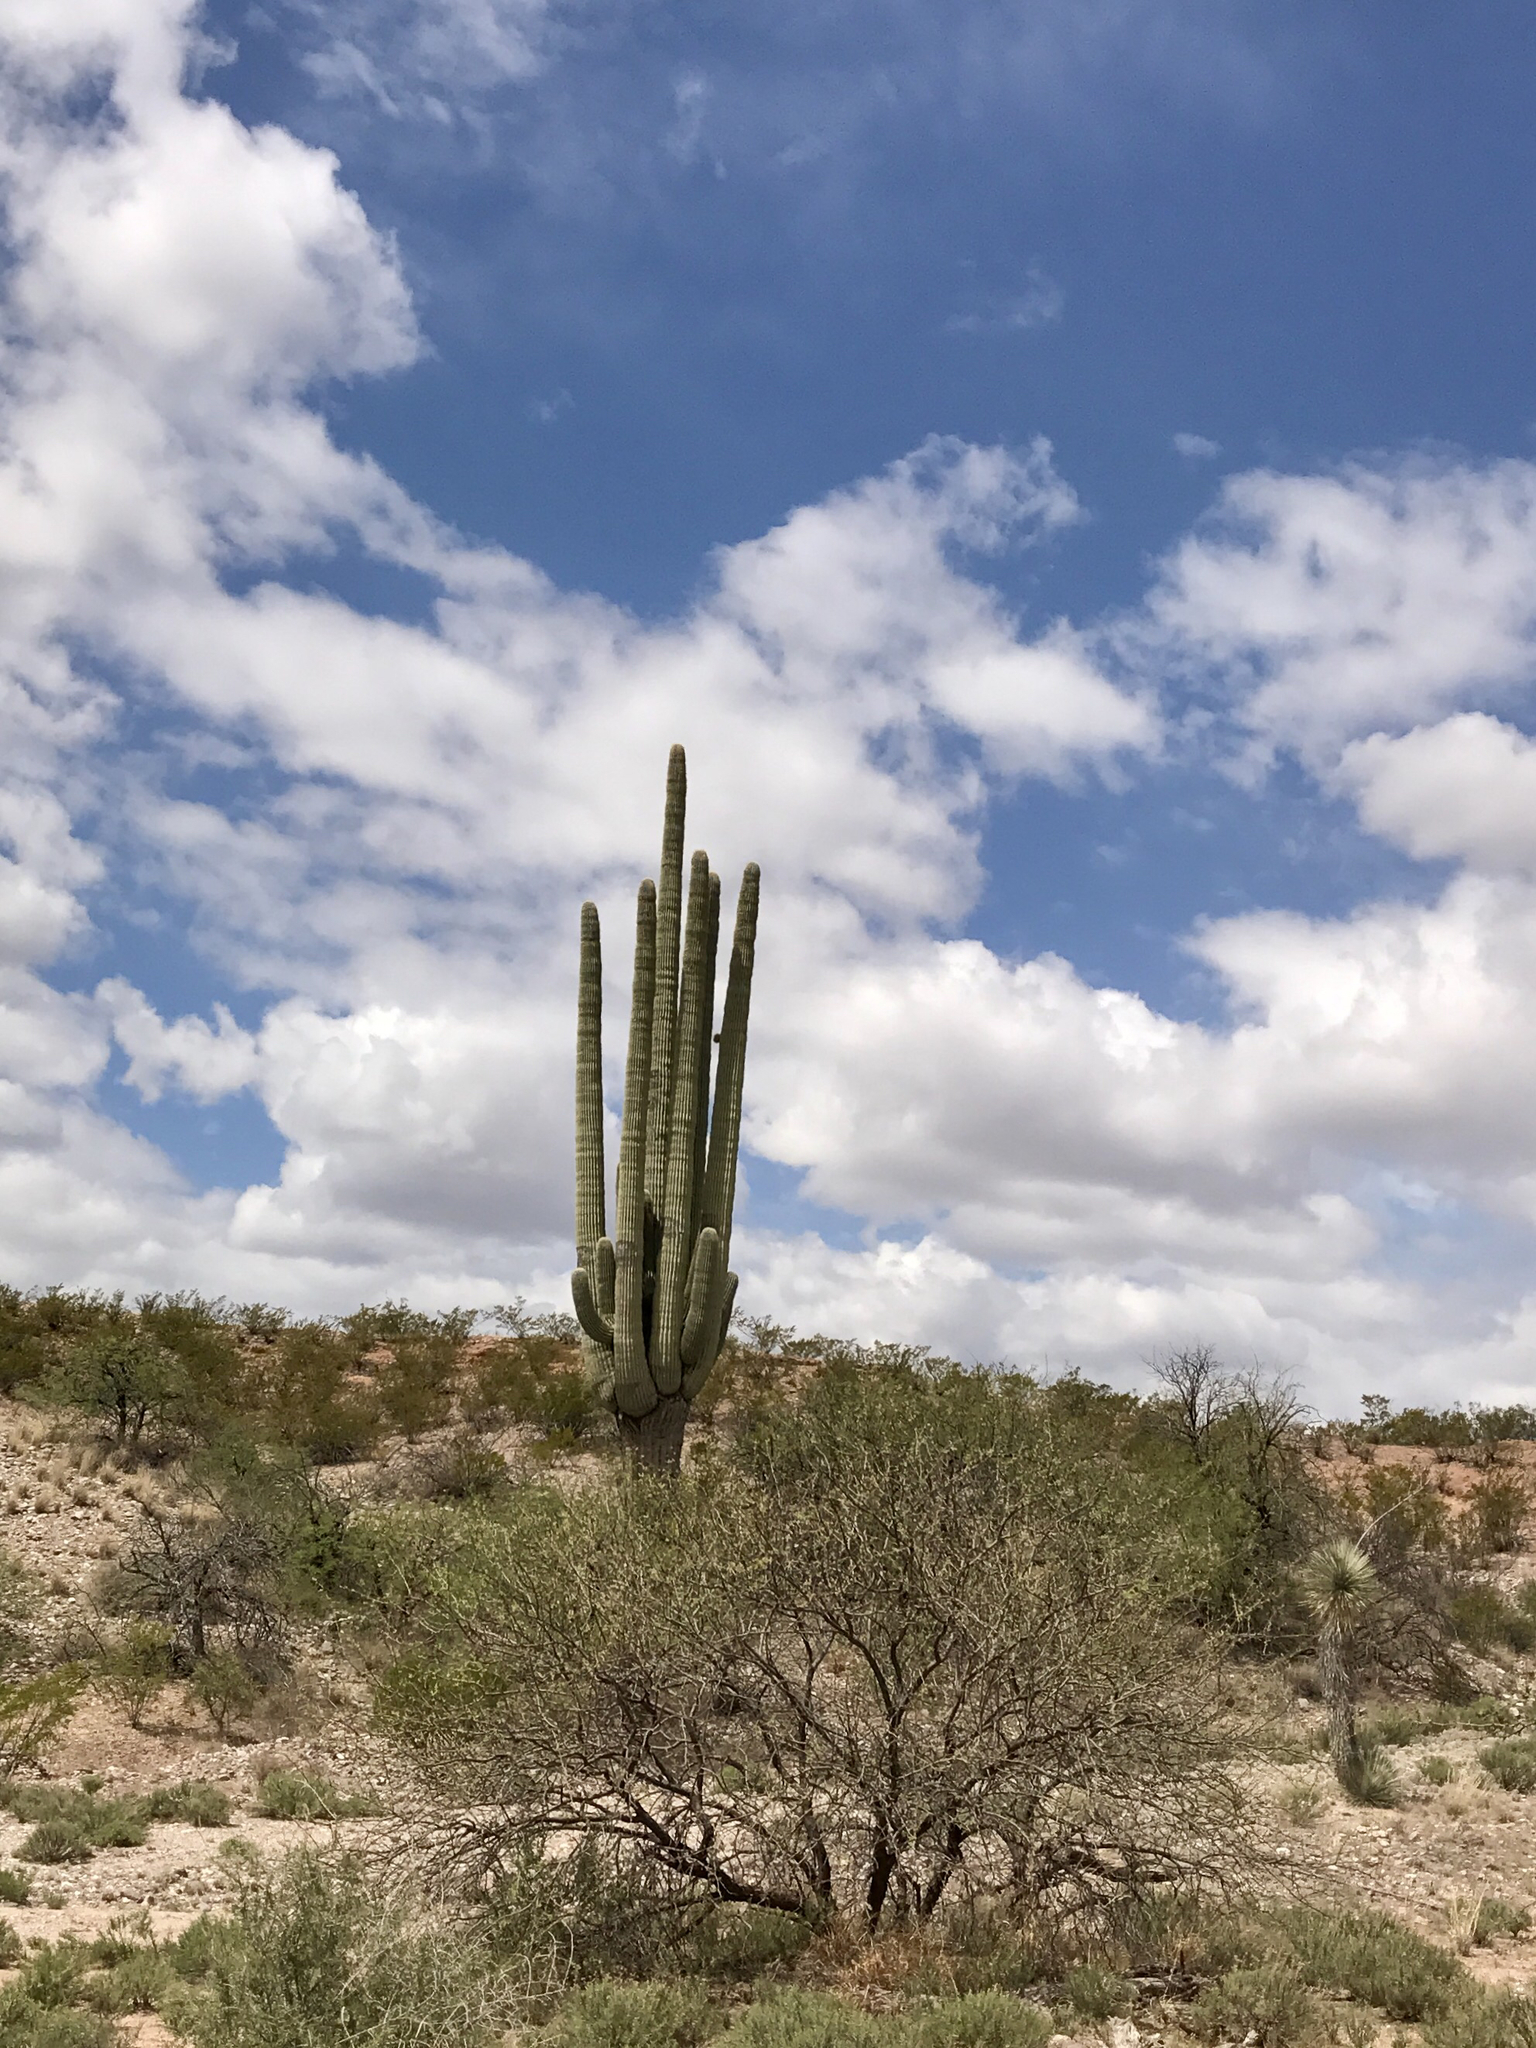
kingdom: Plantae
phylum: Tracheophyta
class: Magnoliopsida
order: Caryophyllales
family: Cactaceae
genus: Carnegiea
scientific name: Carnegiea gigantea
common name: Saguaro
